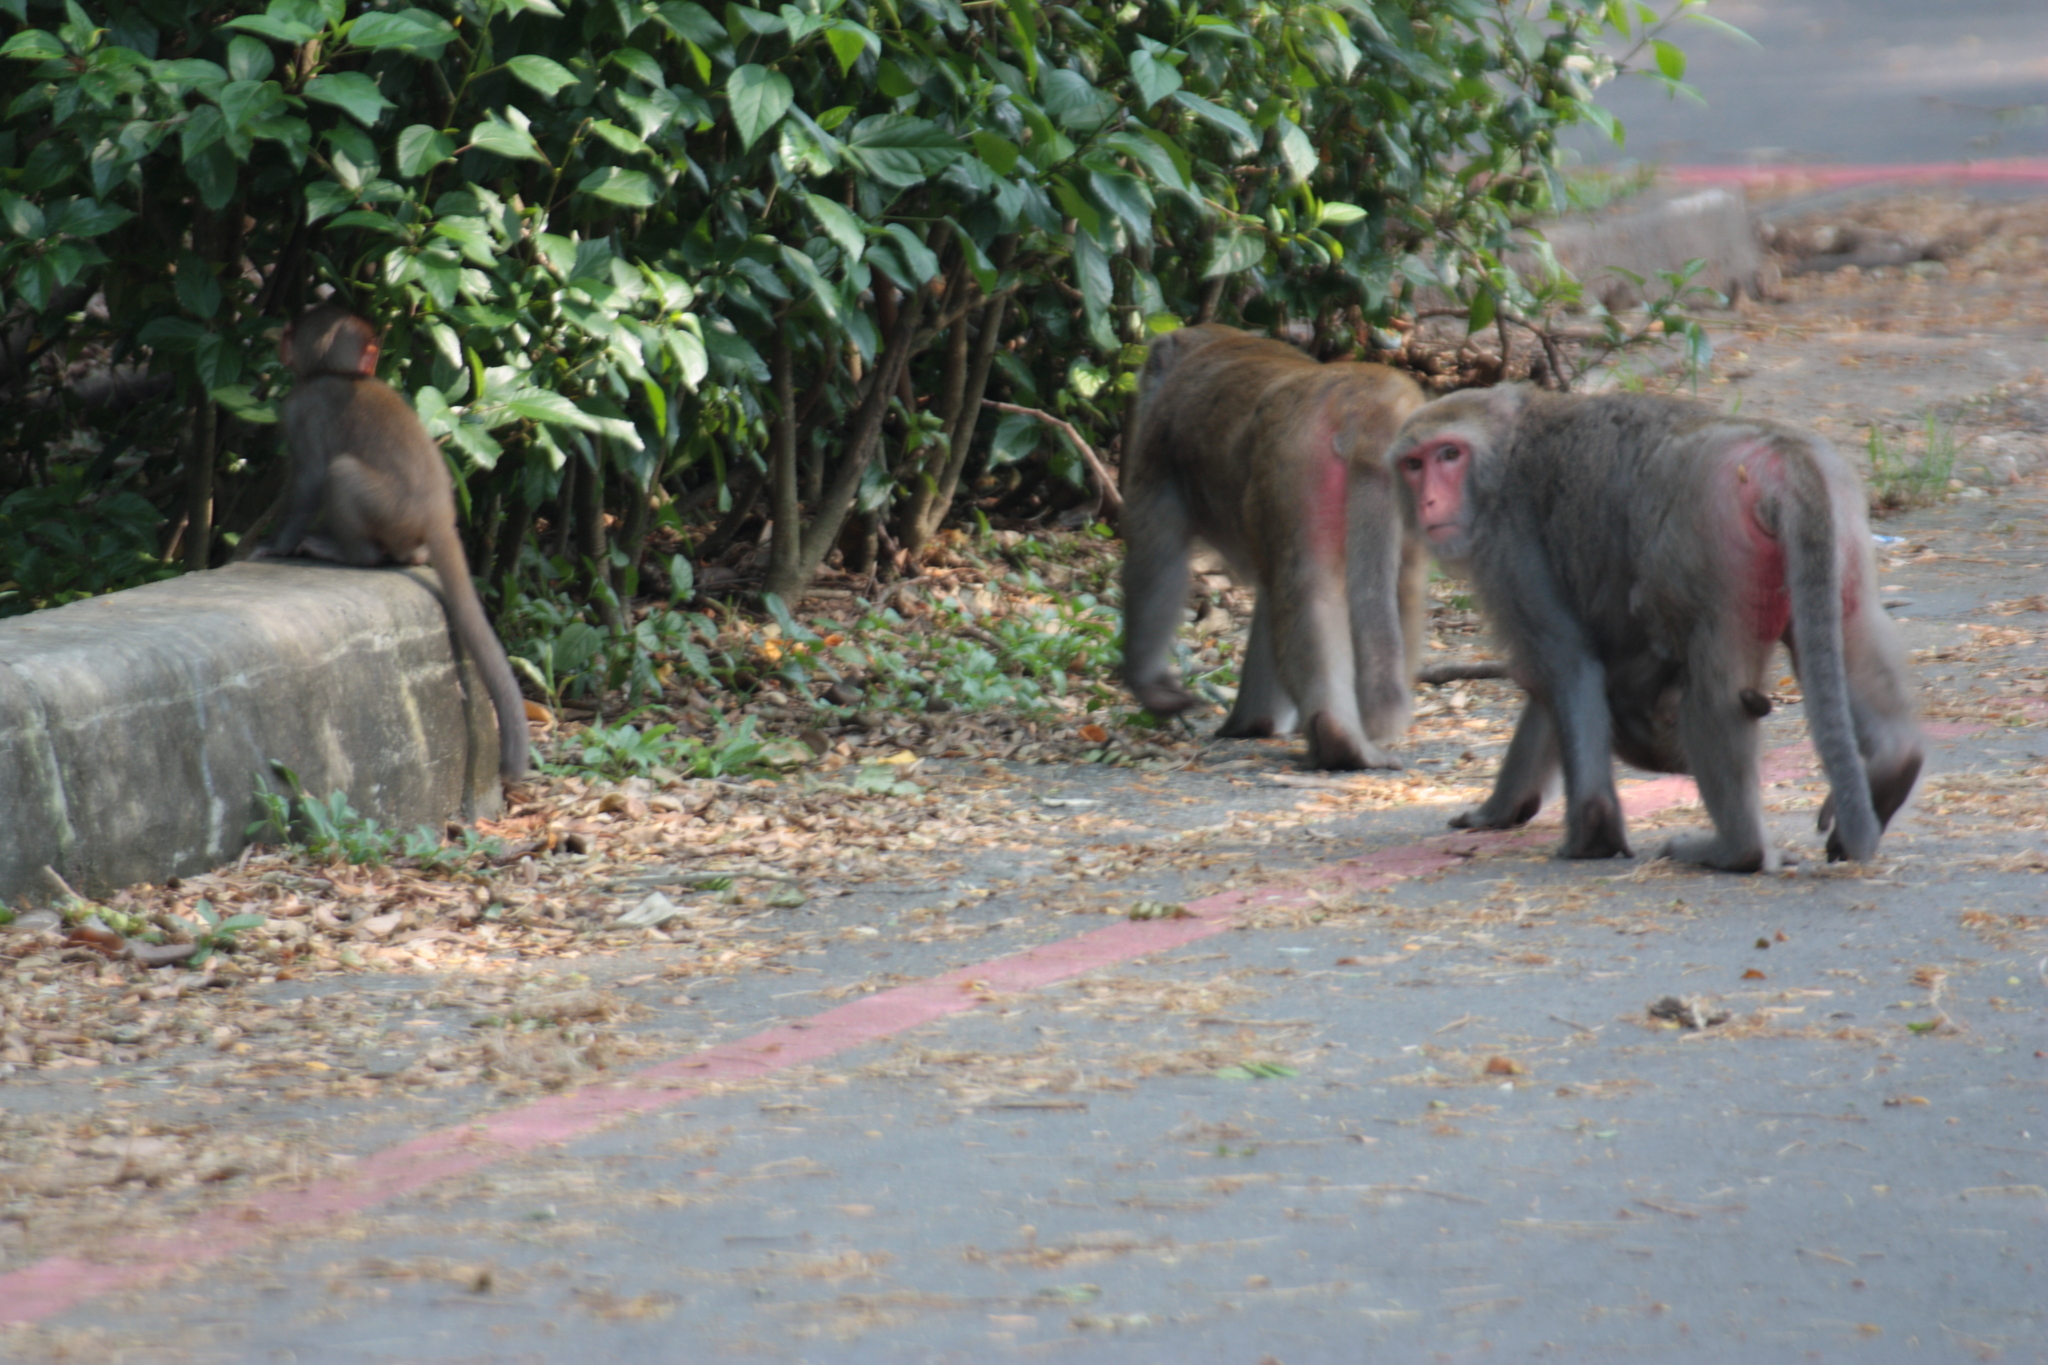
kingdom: Animalia
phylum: Chordata
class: Mammalia
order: Primates
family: Cercopithecidae
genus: Macaca
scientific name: Macaca cyclopis
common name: Formosan rock macaque
